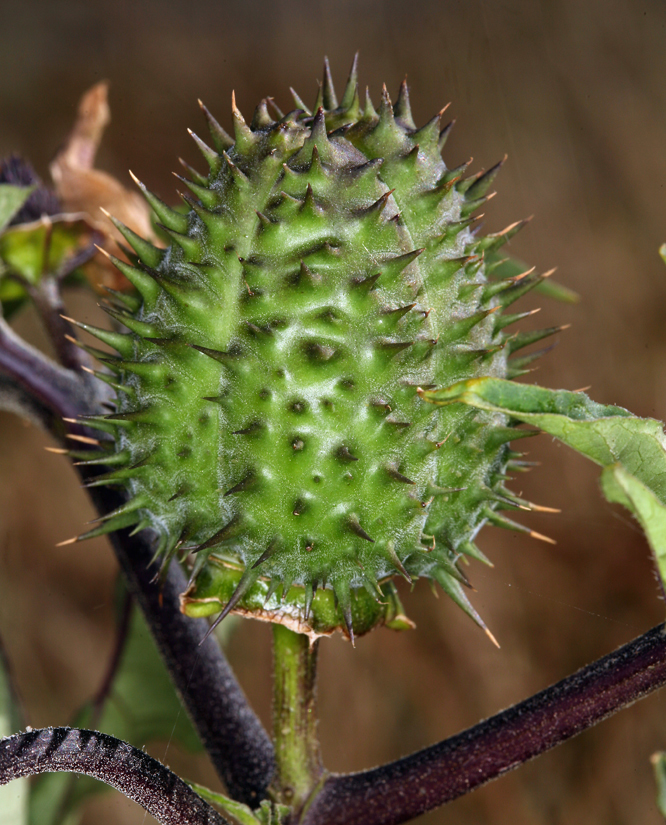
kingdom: Plantae
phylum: Tracheophyta
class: Magnoliopsida
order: Solanales
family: Solanaceae
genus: Datura
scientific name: Datura stramonium
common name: Thorn-apple
